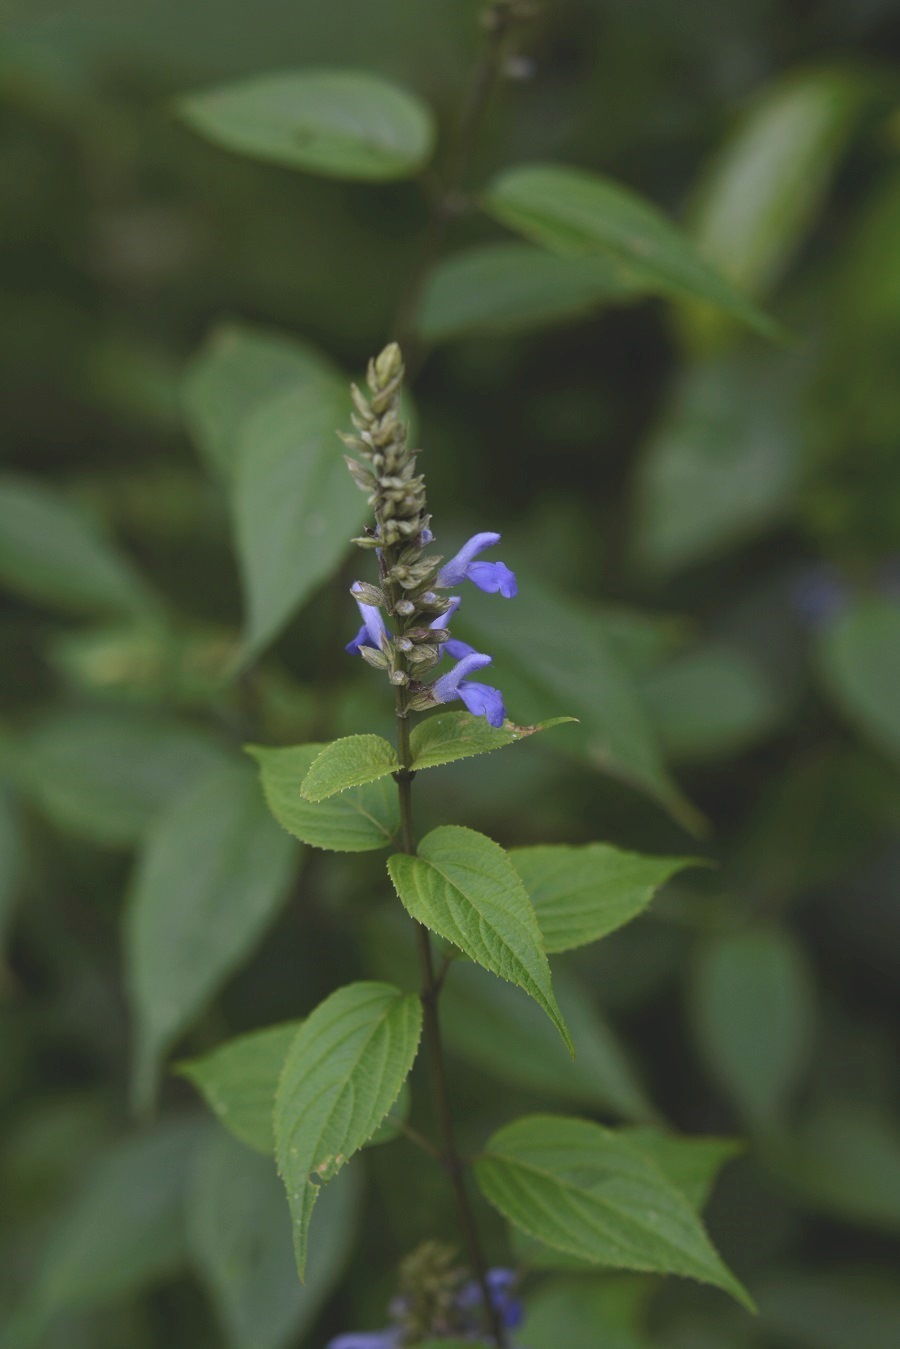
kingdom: Plantae
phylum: Tracheophyta
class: Magnoliopsida
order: Lamiales
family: Lamiaceae
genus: Salvia
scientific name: Salvia connivens
